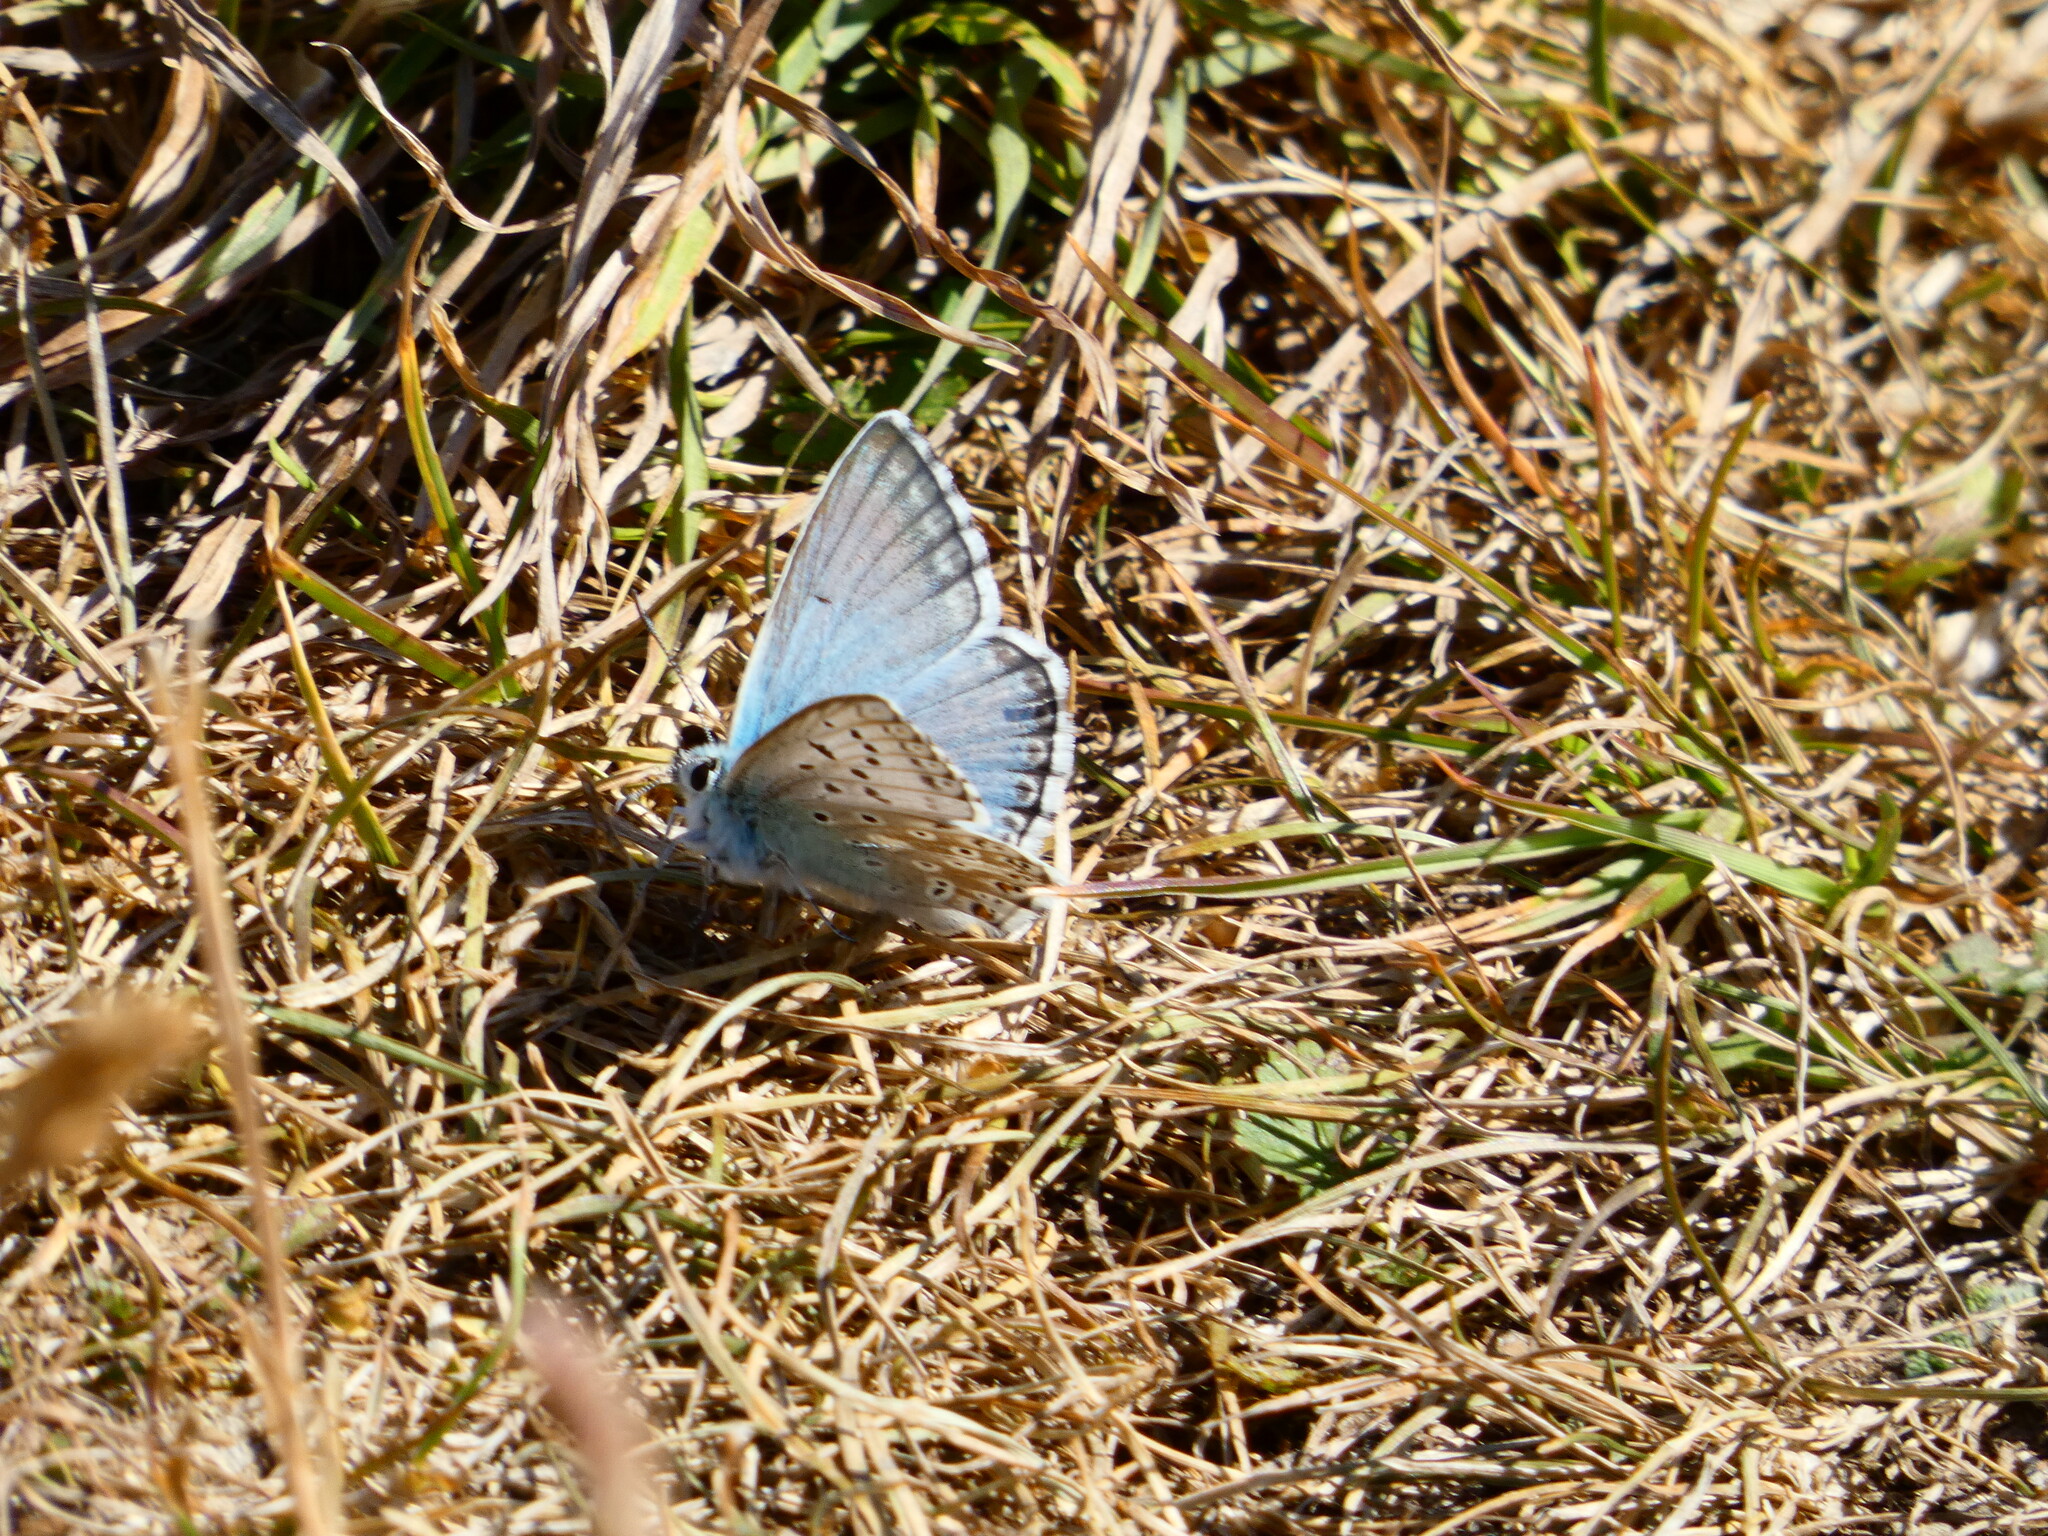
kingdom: Animalia
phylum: Arthropoda
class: Insecta
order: Lepidoptera
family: Lycaenidae
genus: Lysandra
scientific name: Lysandra coridon
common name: Chalkhill blue
